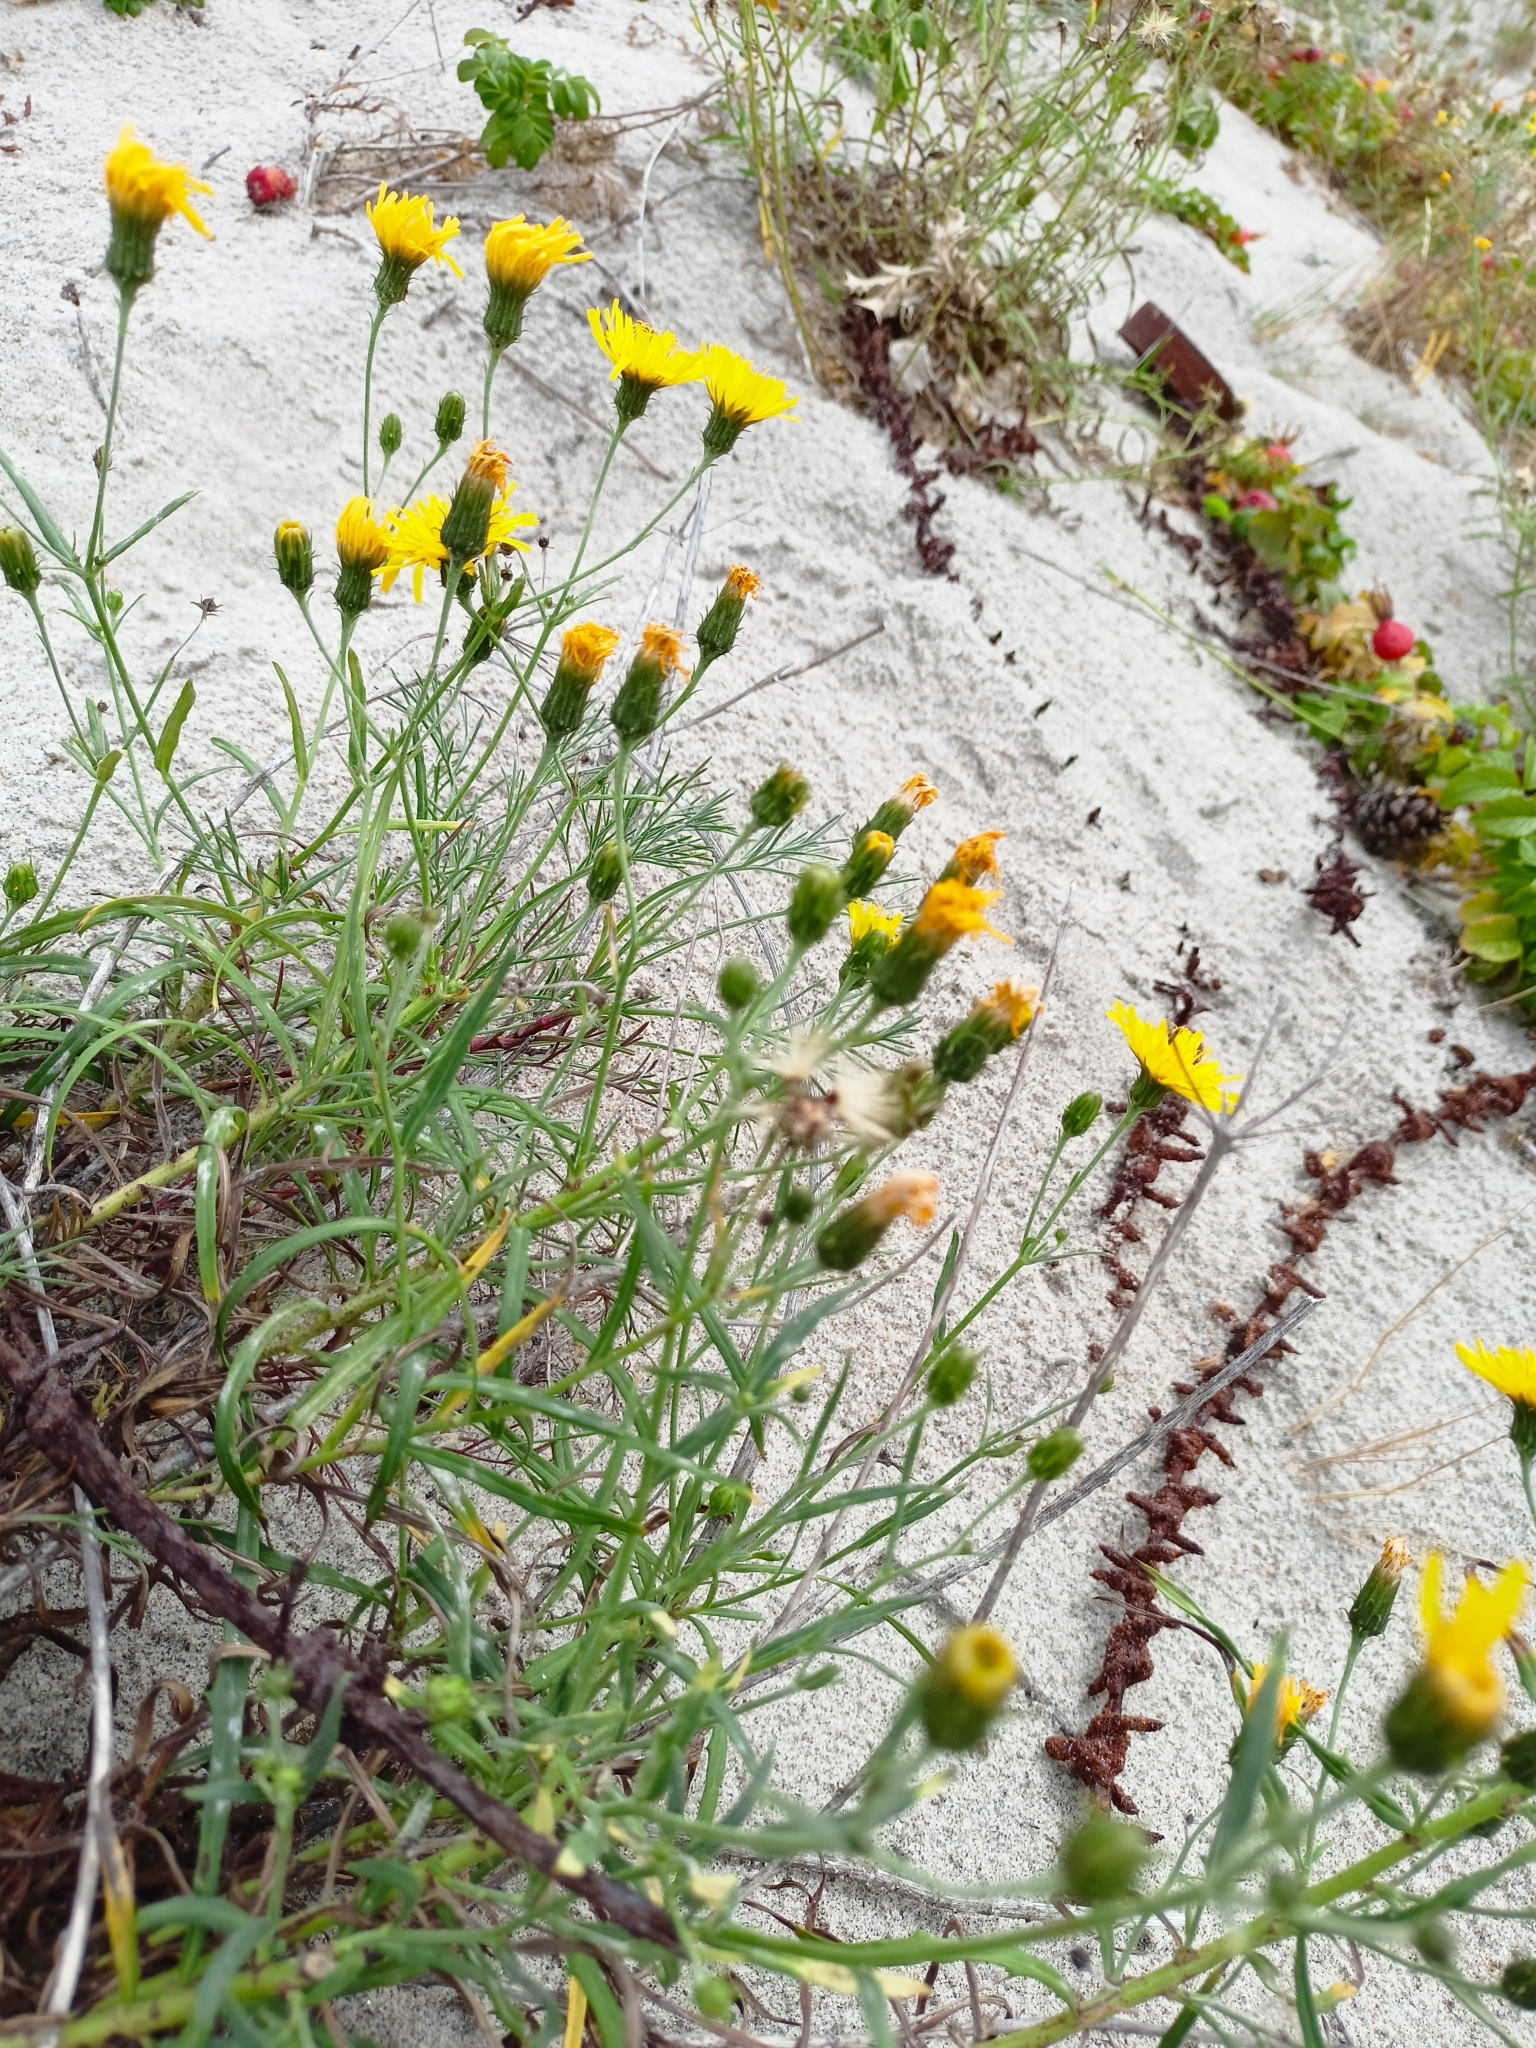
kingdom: Plantae
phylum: Tracheophyta
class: Magnoliopsida
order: Asterales
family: Asteraceae
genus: Hieracium
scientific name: Hieracium umbellatum
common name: Northern hawkweed
